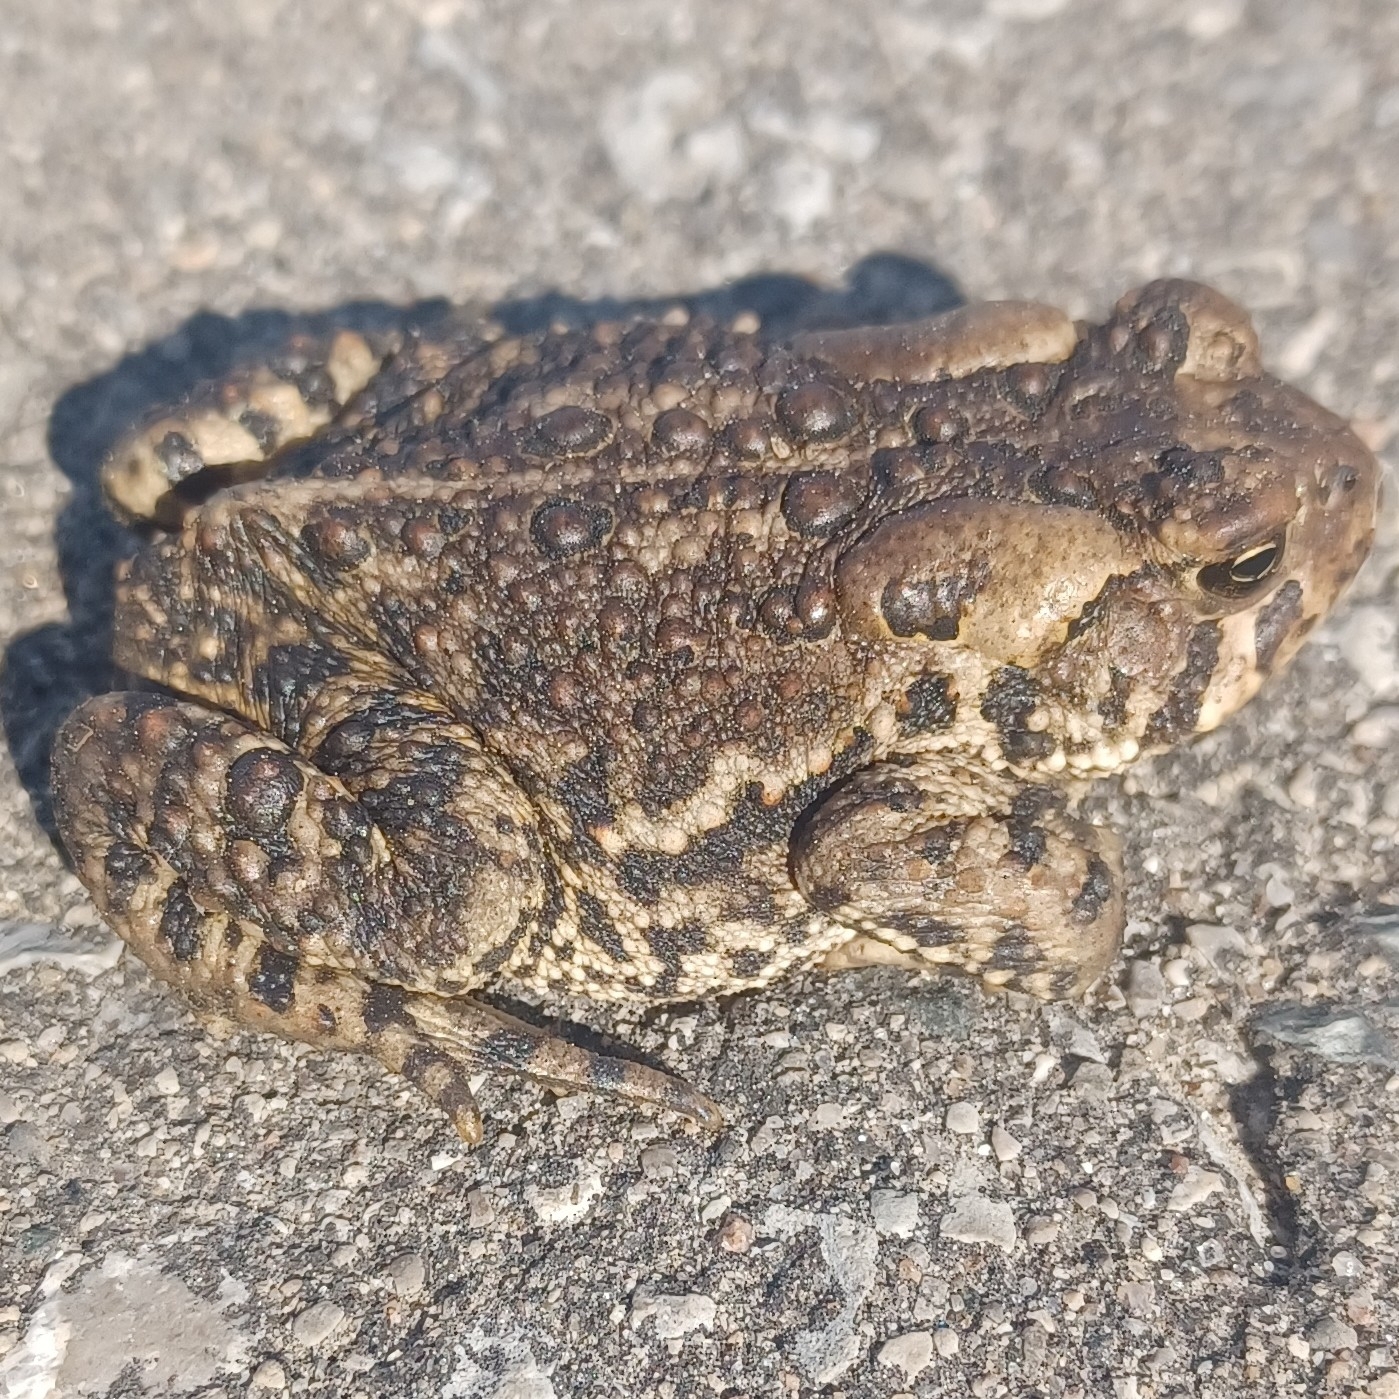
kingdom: Animalia
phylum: Chordata
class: Amphibia
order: Anura
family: Bufonidae
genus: Anaxyrus
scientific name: Anaxyrus americanus
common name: American toad
